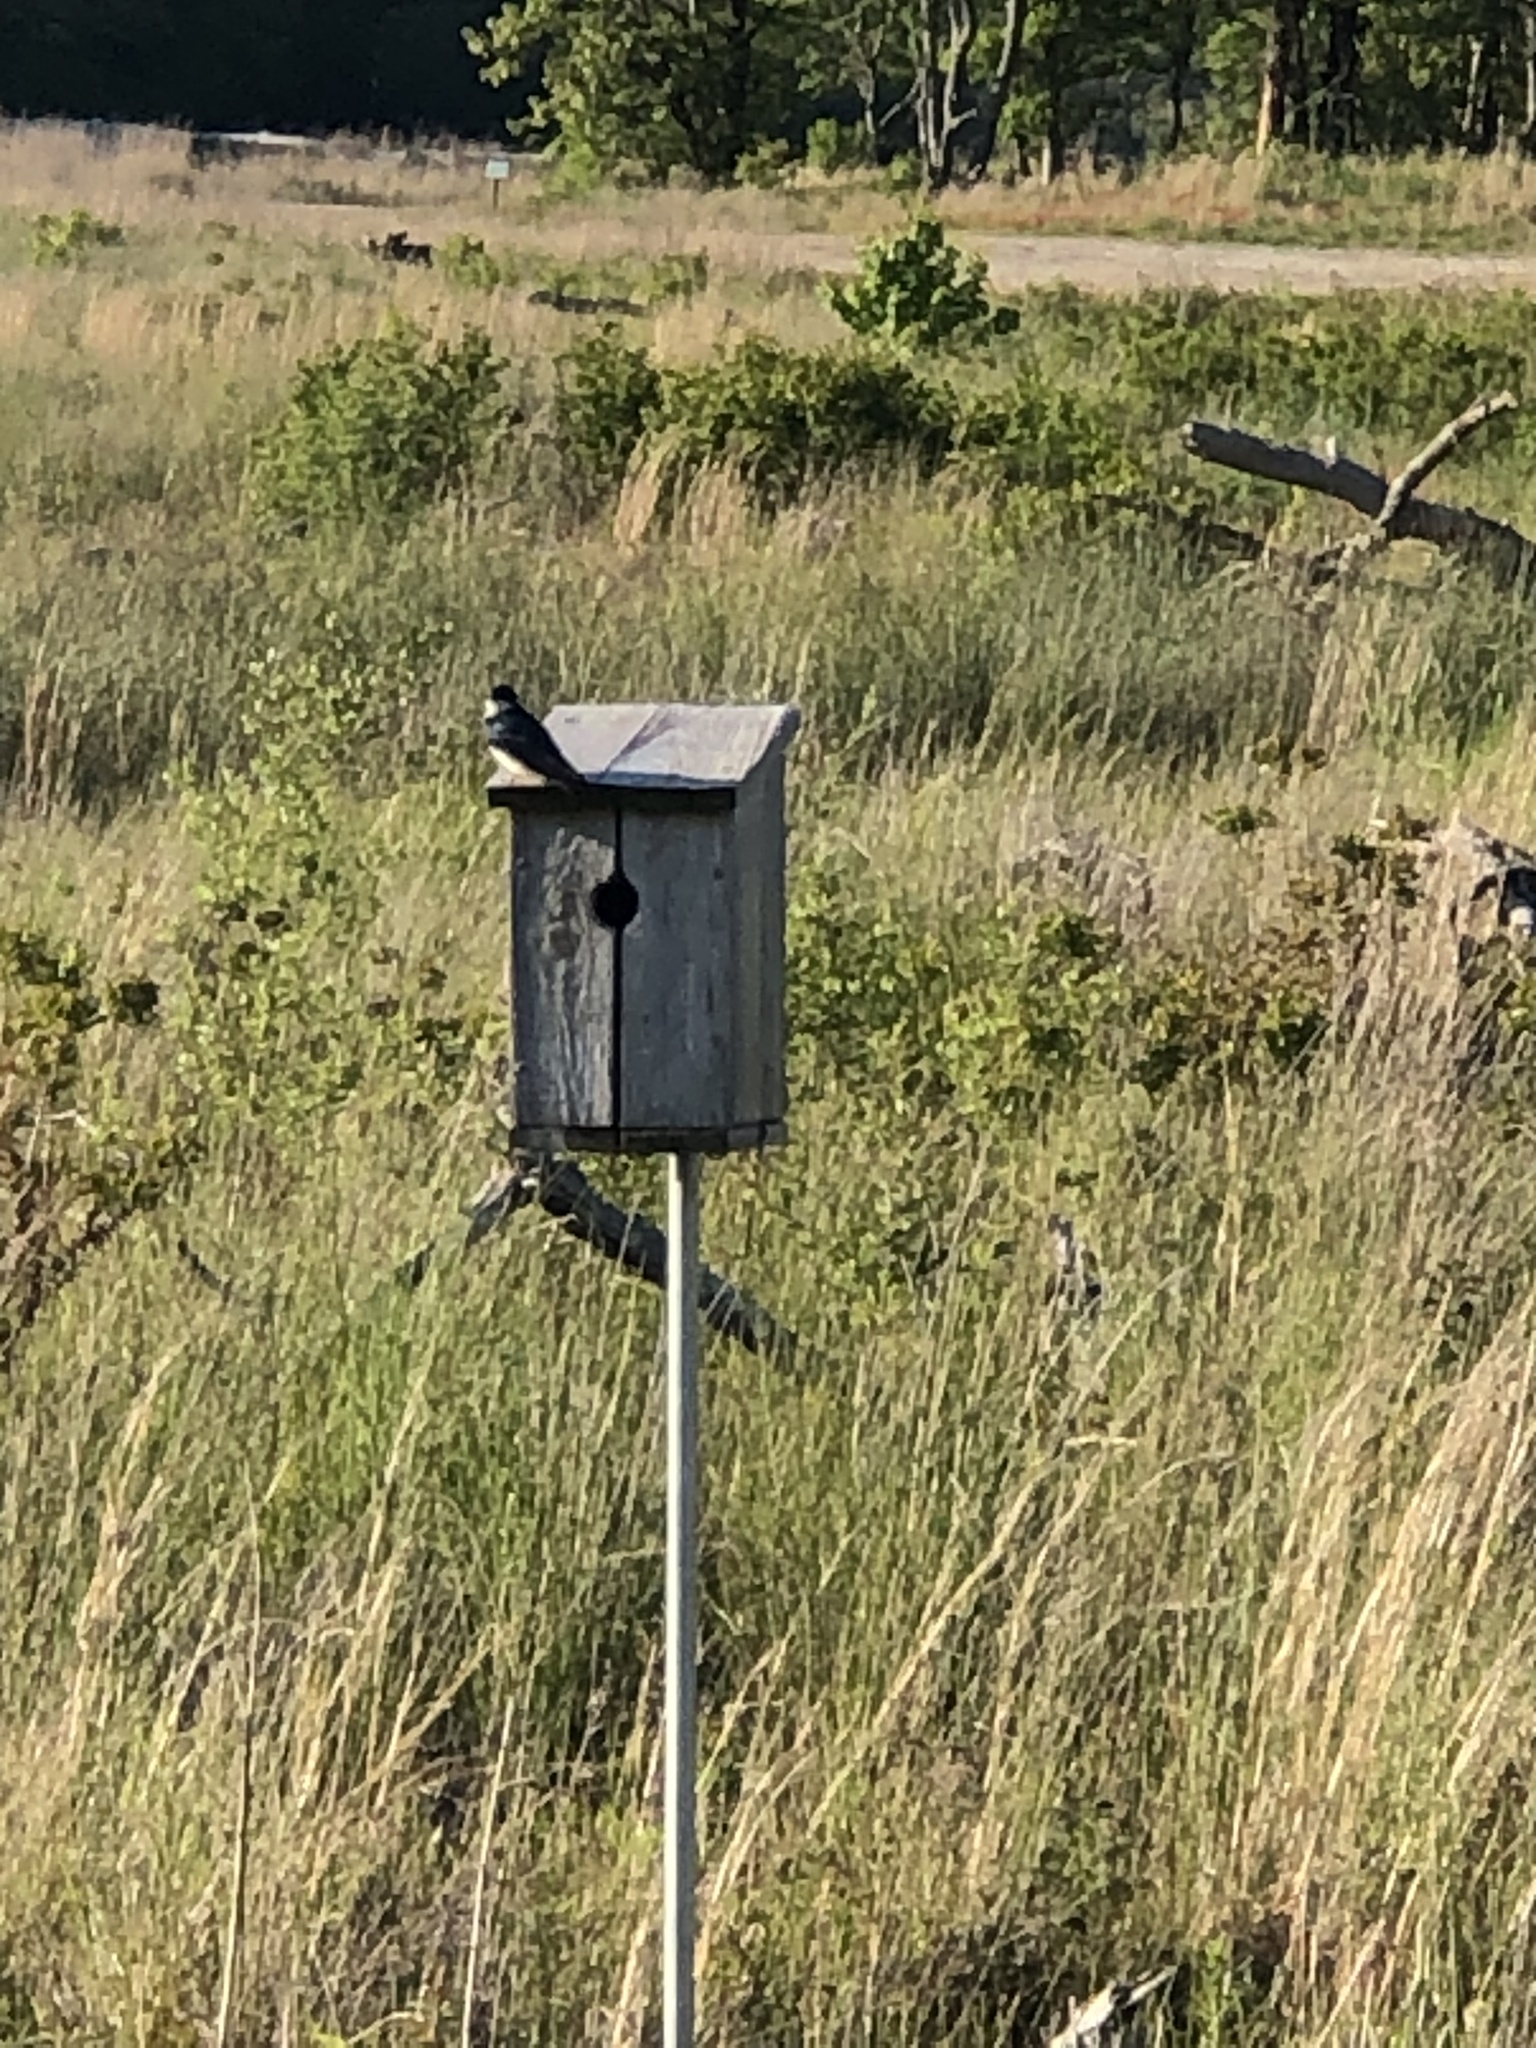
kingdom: Animalia
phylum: Chordata
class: Aves
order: Passeriformes
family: Hirundinidae
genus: Tachycineta
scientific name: Tachycineta bicolor
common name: Tree swallow
